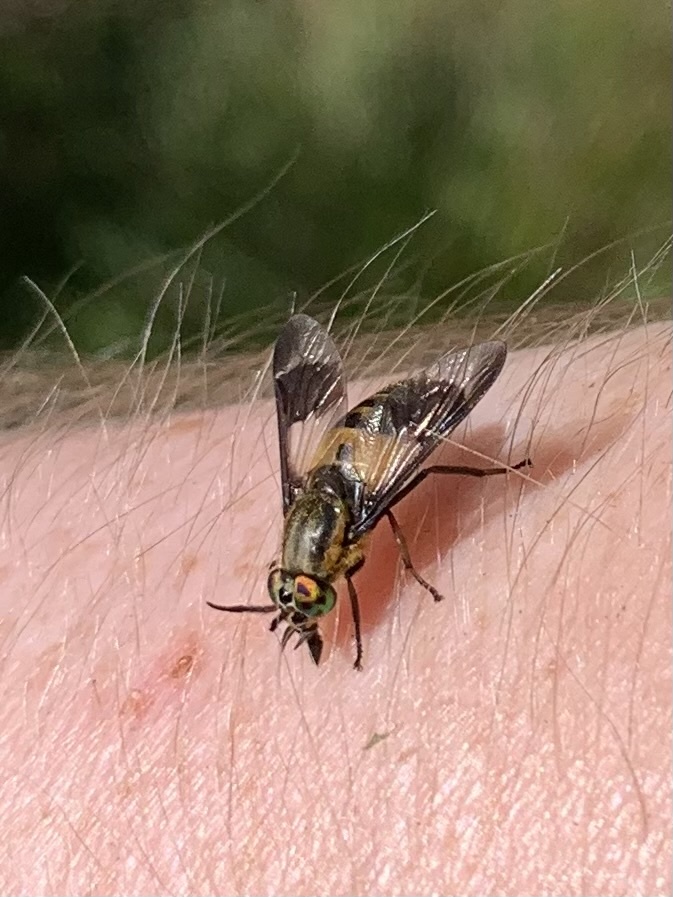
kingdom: Animalia
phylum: Arthropoda
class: Insecta
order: Diptera
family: Tabanidae
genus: Chrysops
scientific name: Chrysops viduatus
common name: Square-spot deerfly
